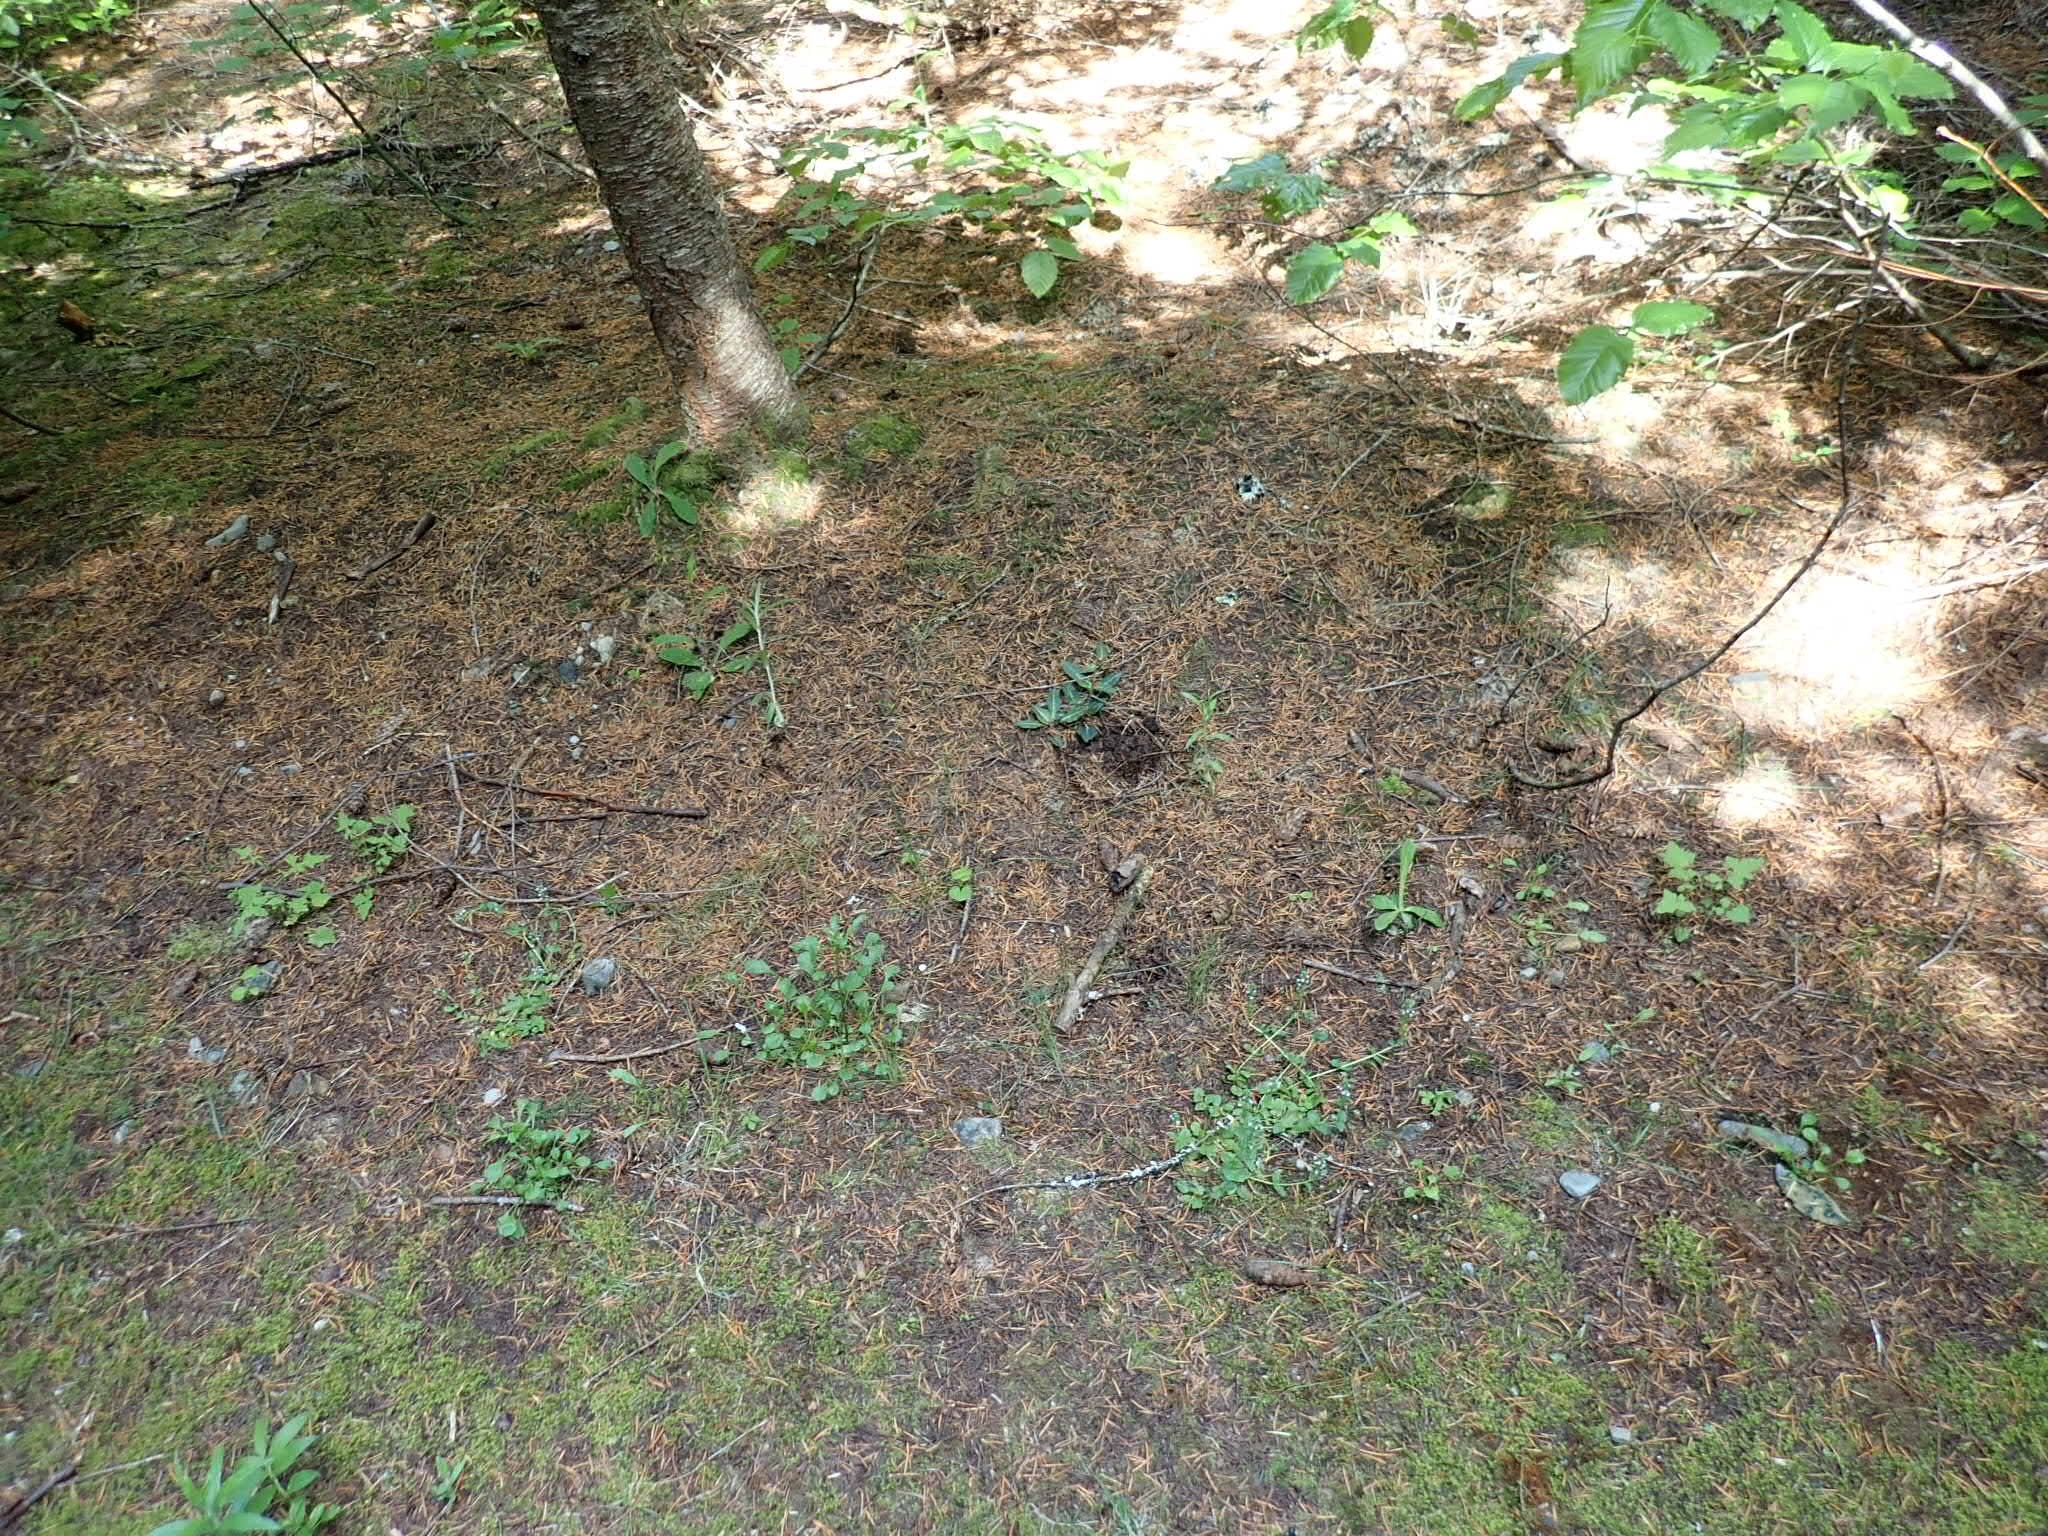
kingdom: Plantae
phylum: Tracheophyta
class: Liliopsida
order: Asparagales
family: Orchidaceae
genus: Goodyera
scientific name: Goodyera oblongifolia
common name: Giant rattlesnake-plantain
